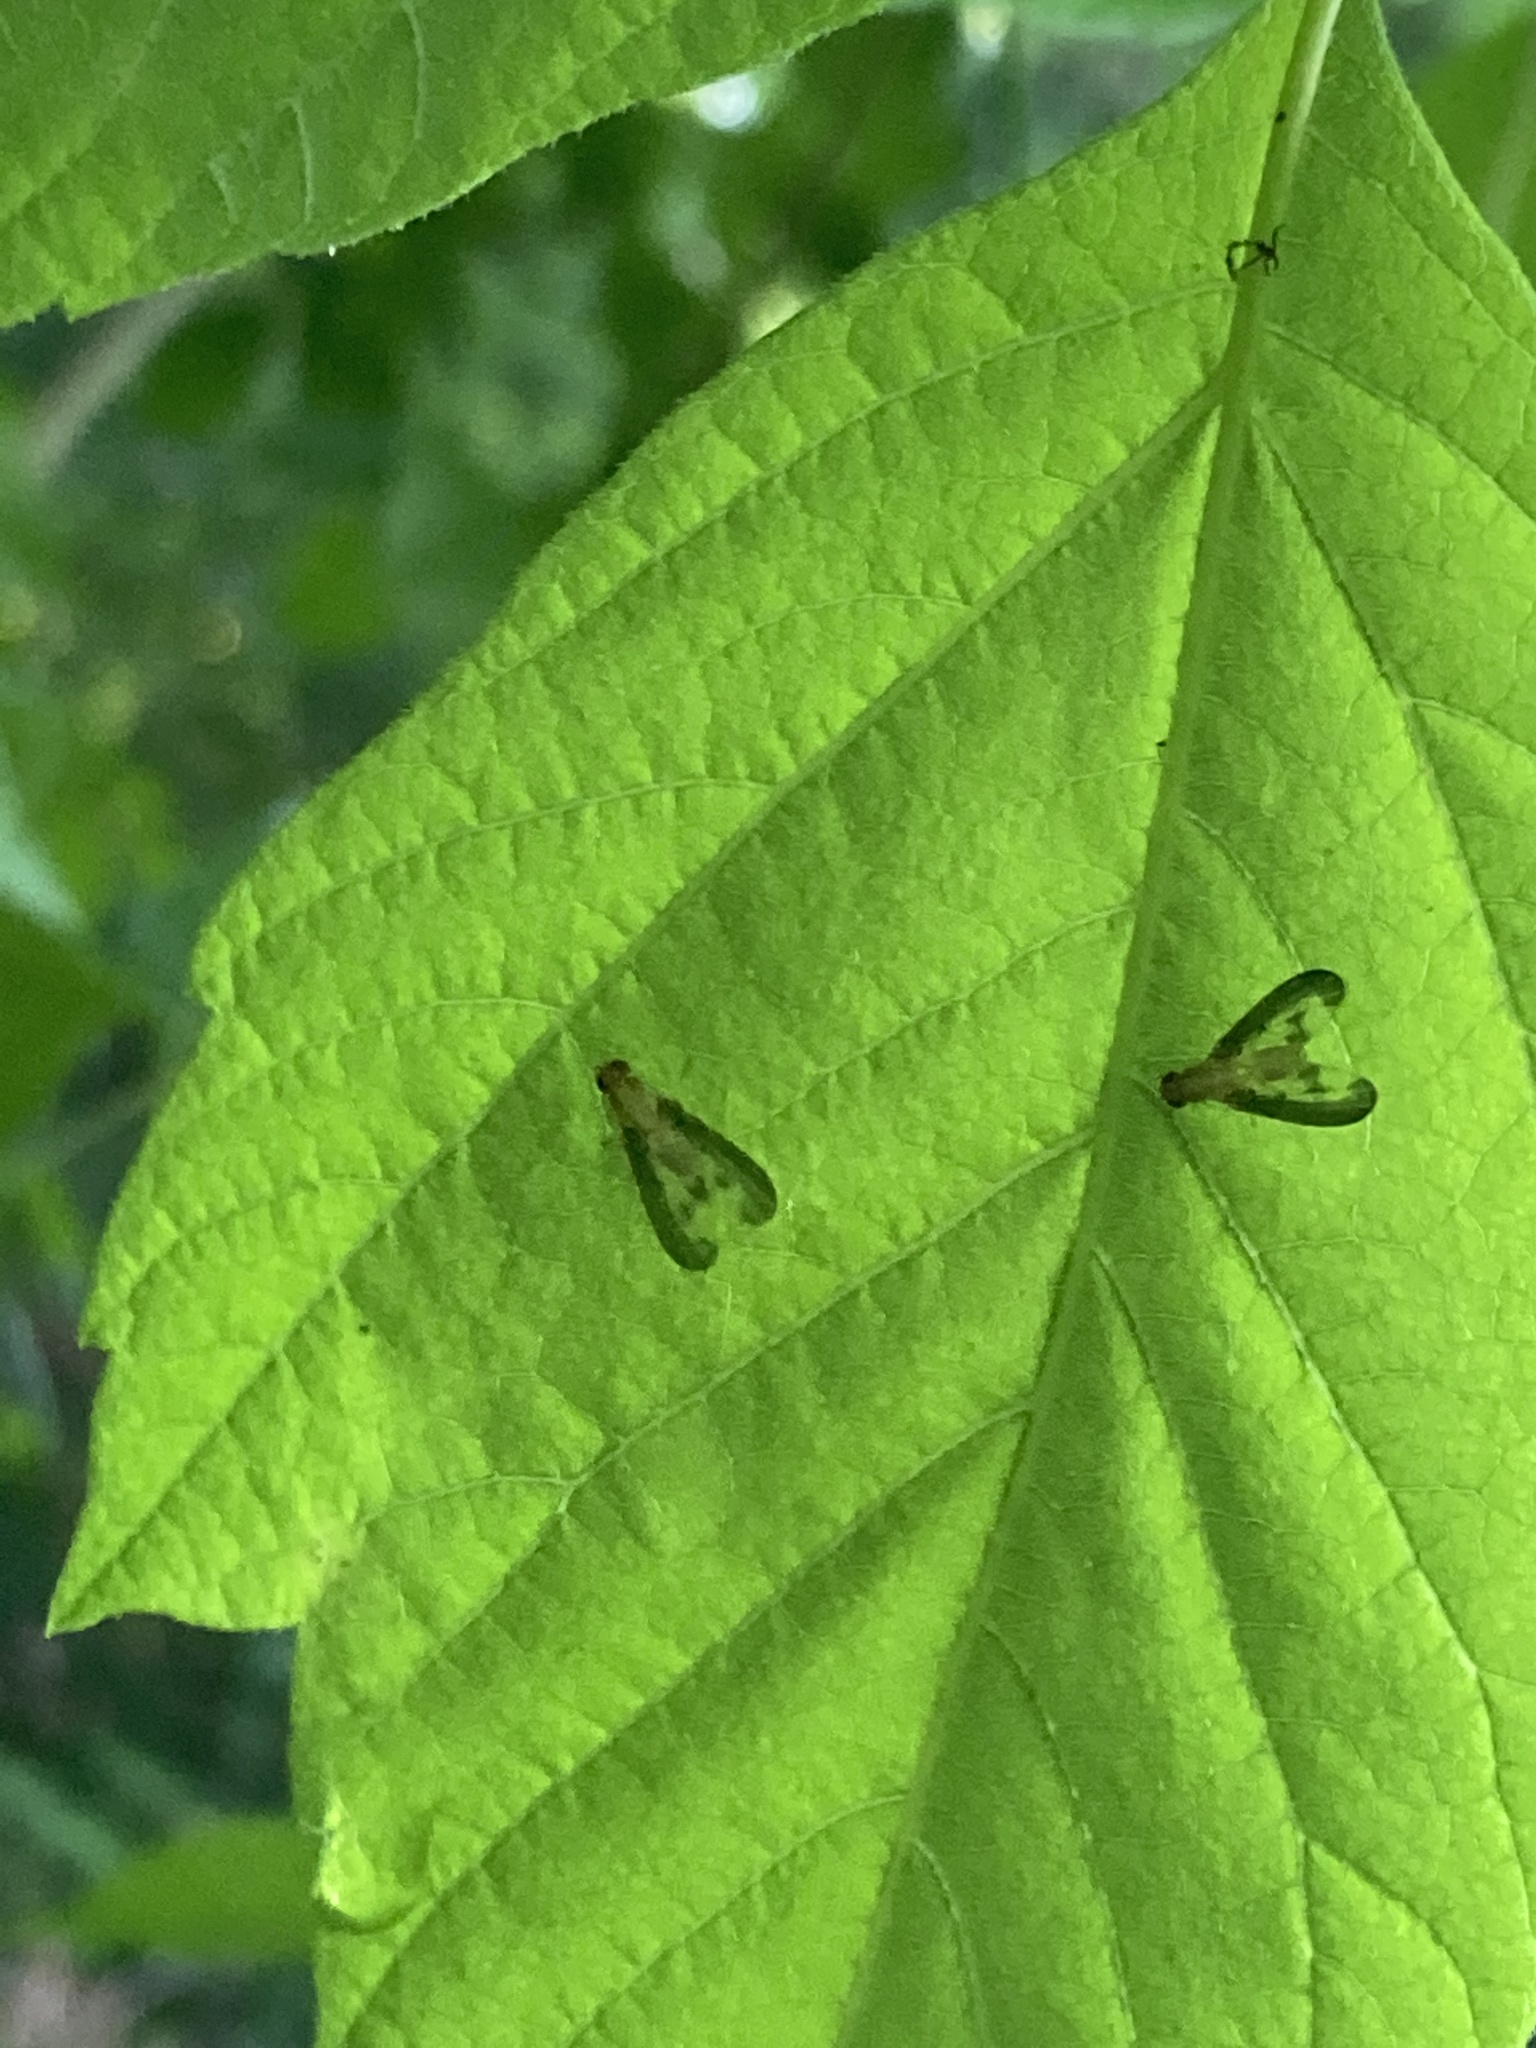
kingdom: Animalia
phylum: Arthropoda
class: Insecta
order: Diptera
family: Pallopteridae
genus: Toxonevra
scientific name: Toxonevra superba
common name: Antlered flutter fly
